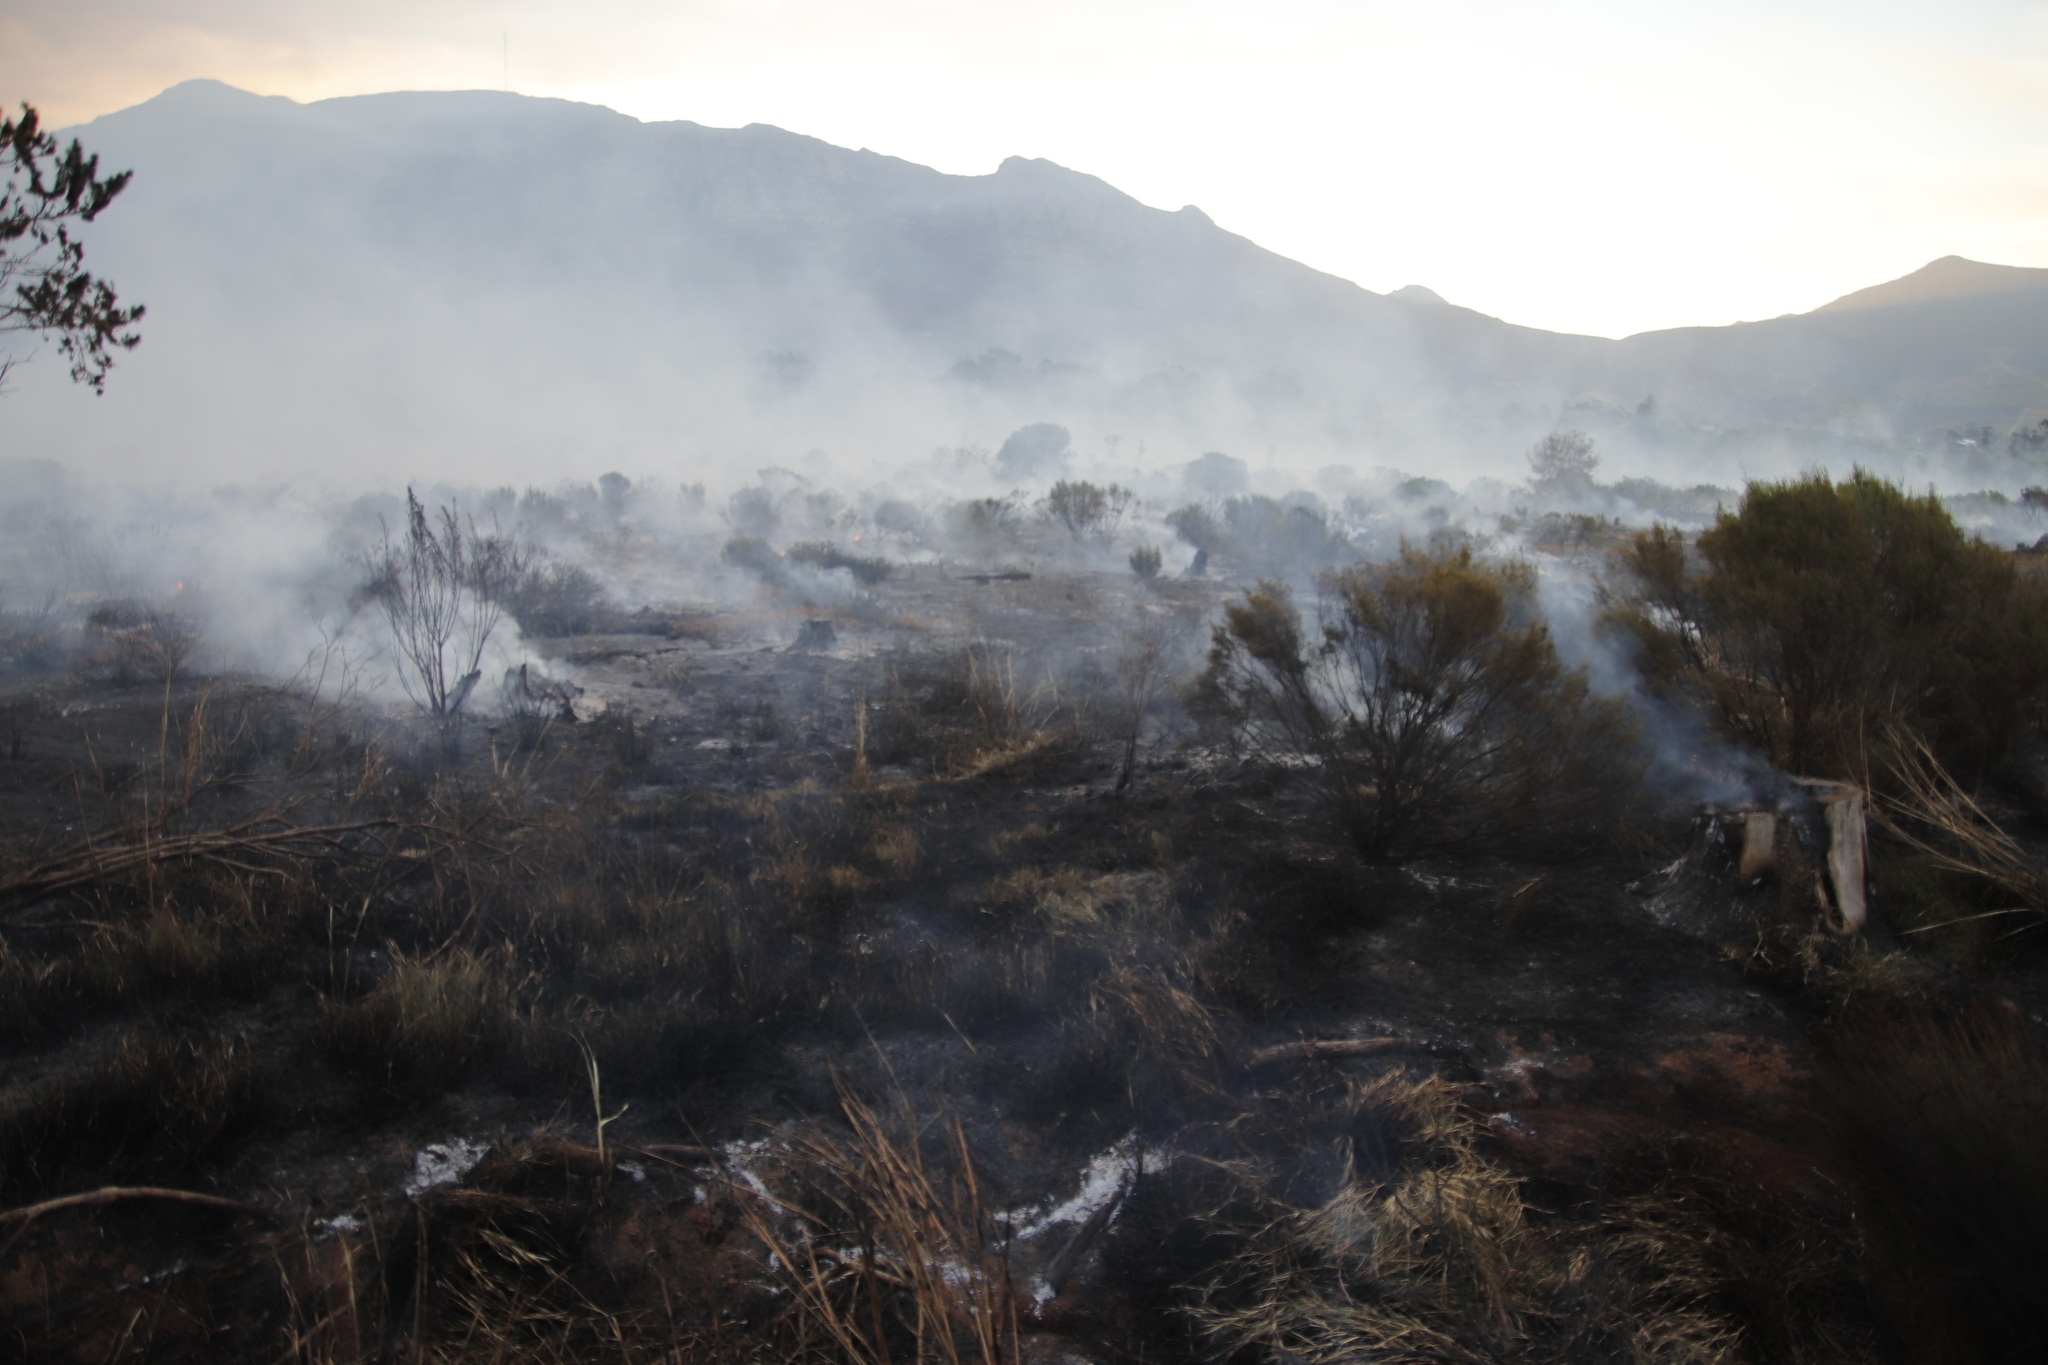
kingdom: Plantae
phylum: Tracheophyta
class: Pinopsida
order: Pinales
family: Pinaceae
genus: Pinus
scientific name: Pinus radiata
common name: Monterey pine
